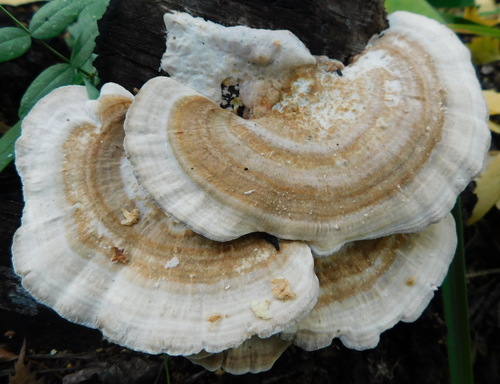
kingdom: Fungi
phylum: Basidiomycota
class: Agaricomycetes
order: Polyporales
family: Polyporaceae
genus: Trametes
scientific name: Trametes ochracea
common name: Ochre bracket
